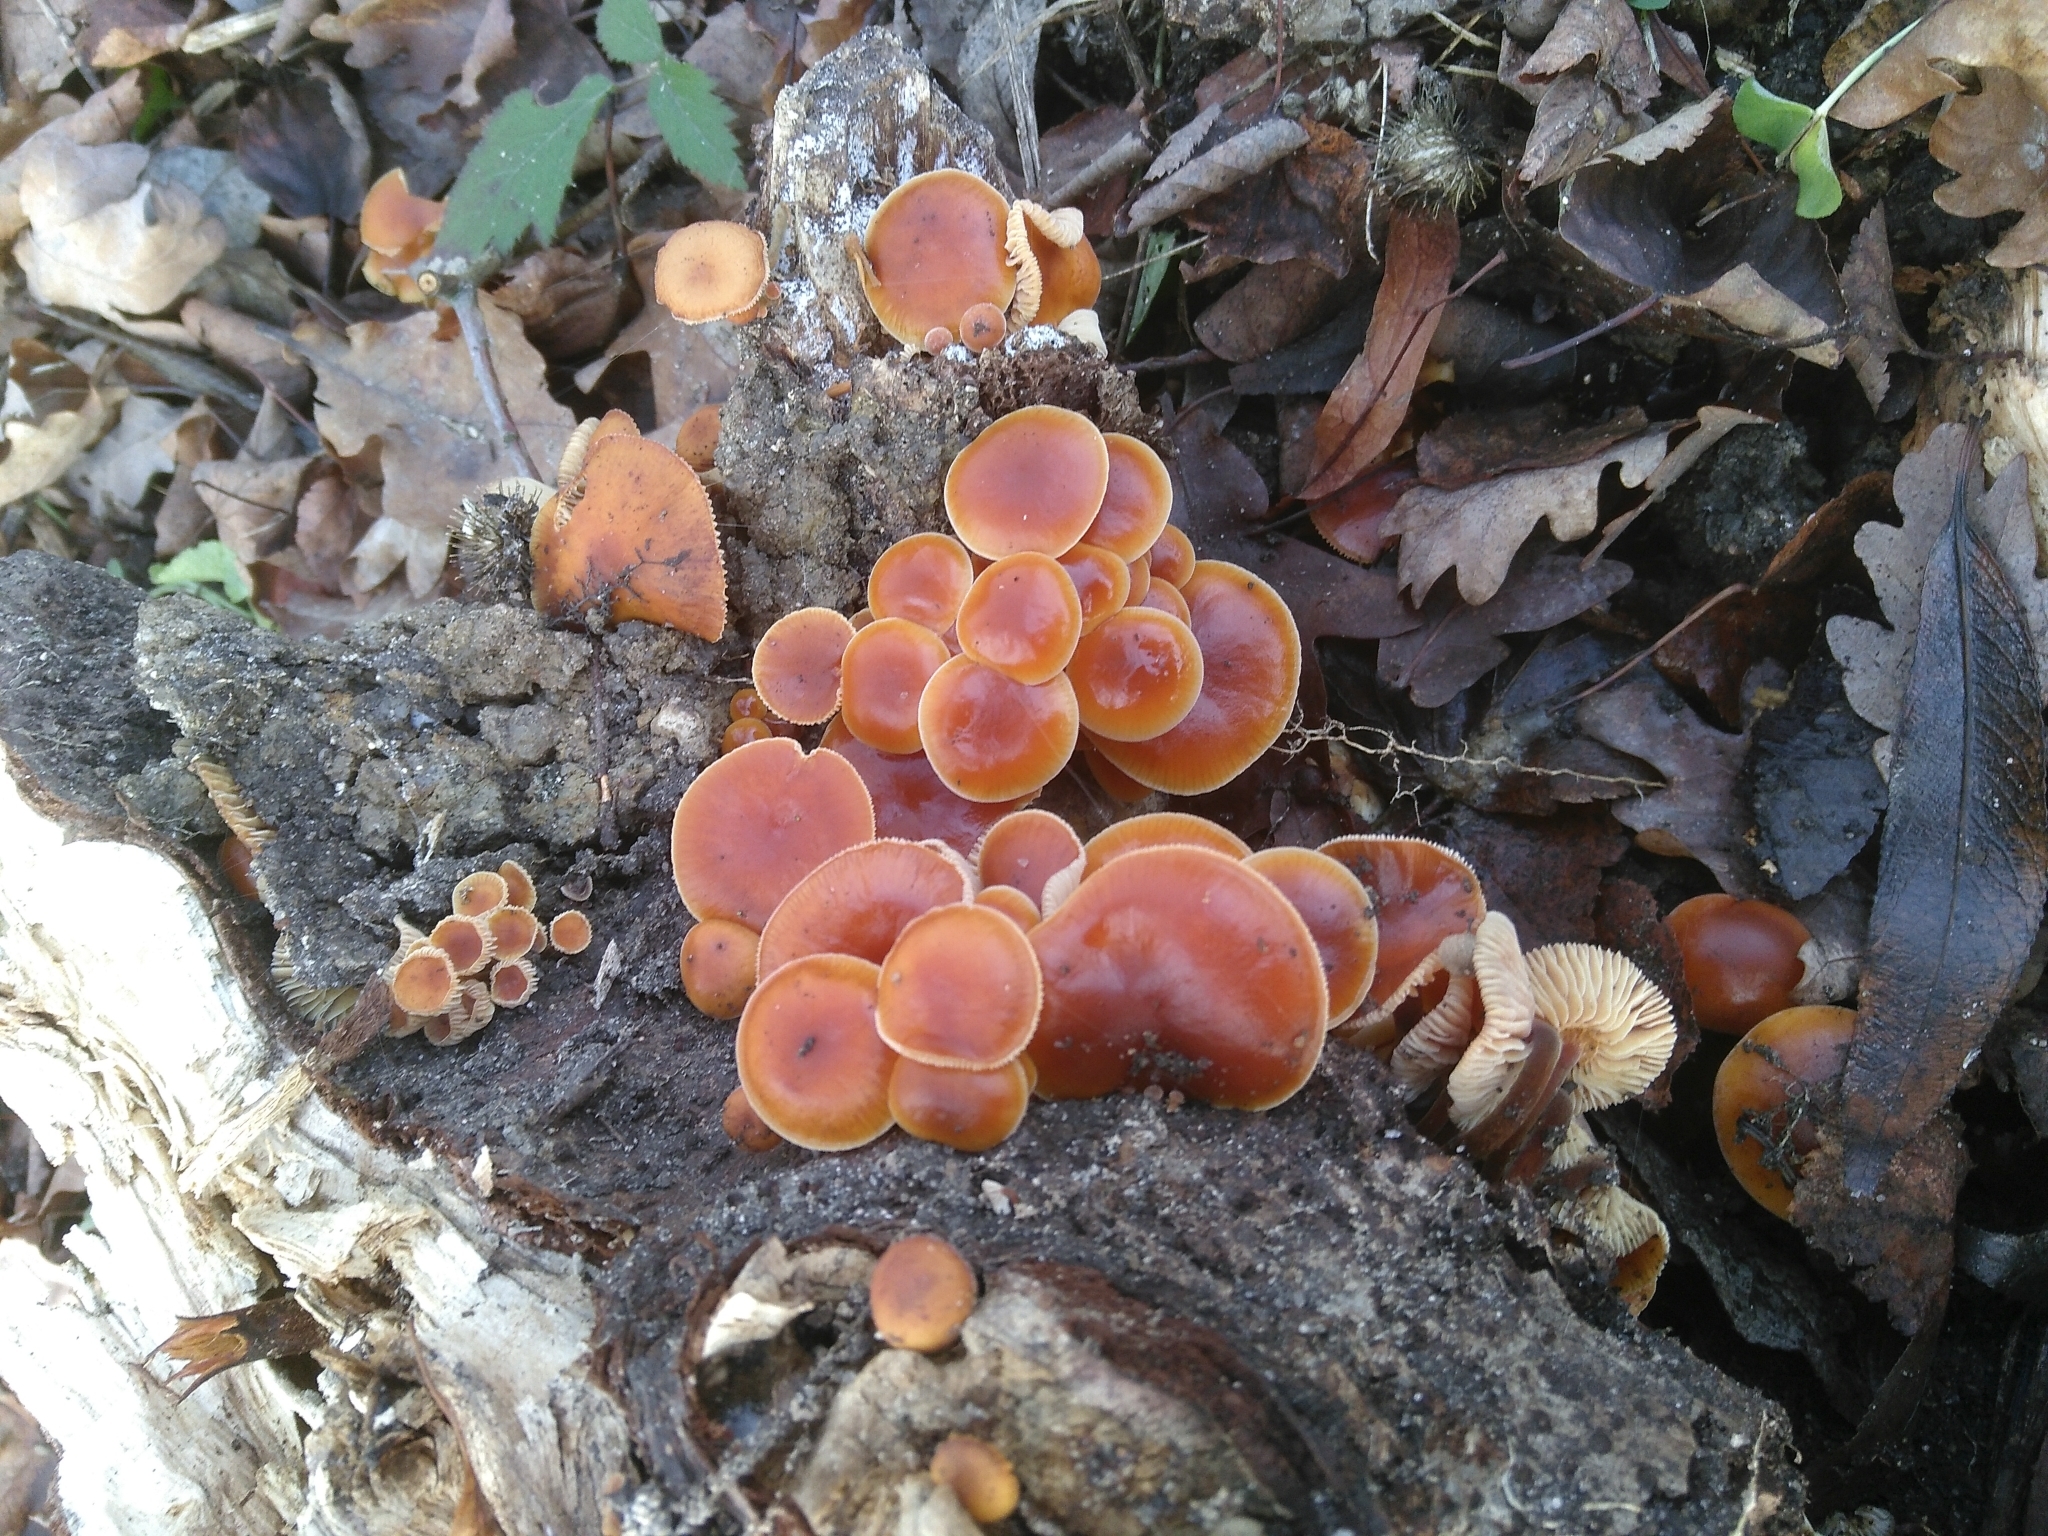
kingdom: Fungi
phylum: Basidiomycota
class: Agaricomycetes
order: Agaricales
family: Physalacriaceae
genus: Flammulina
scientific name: Flammulina
